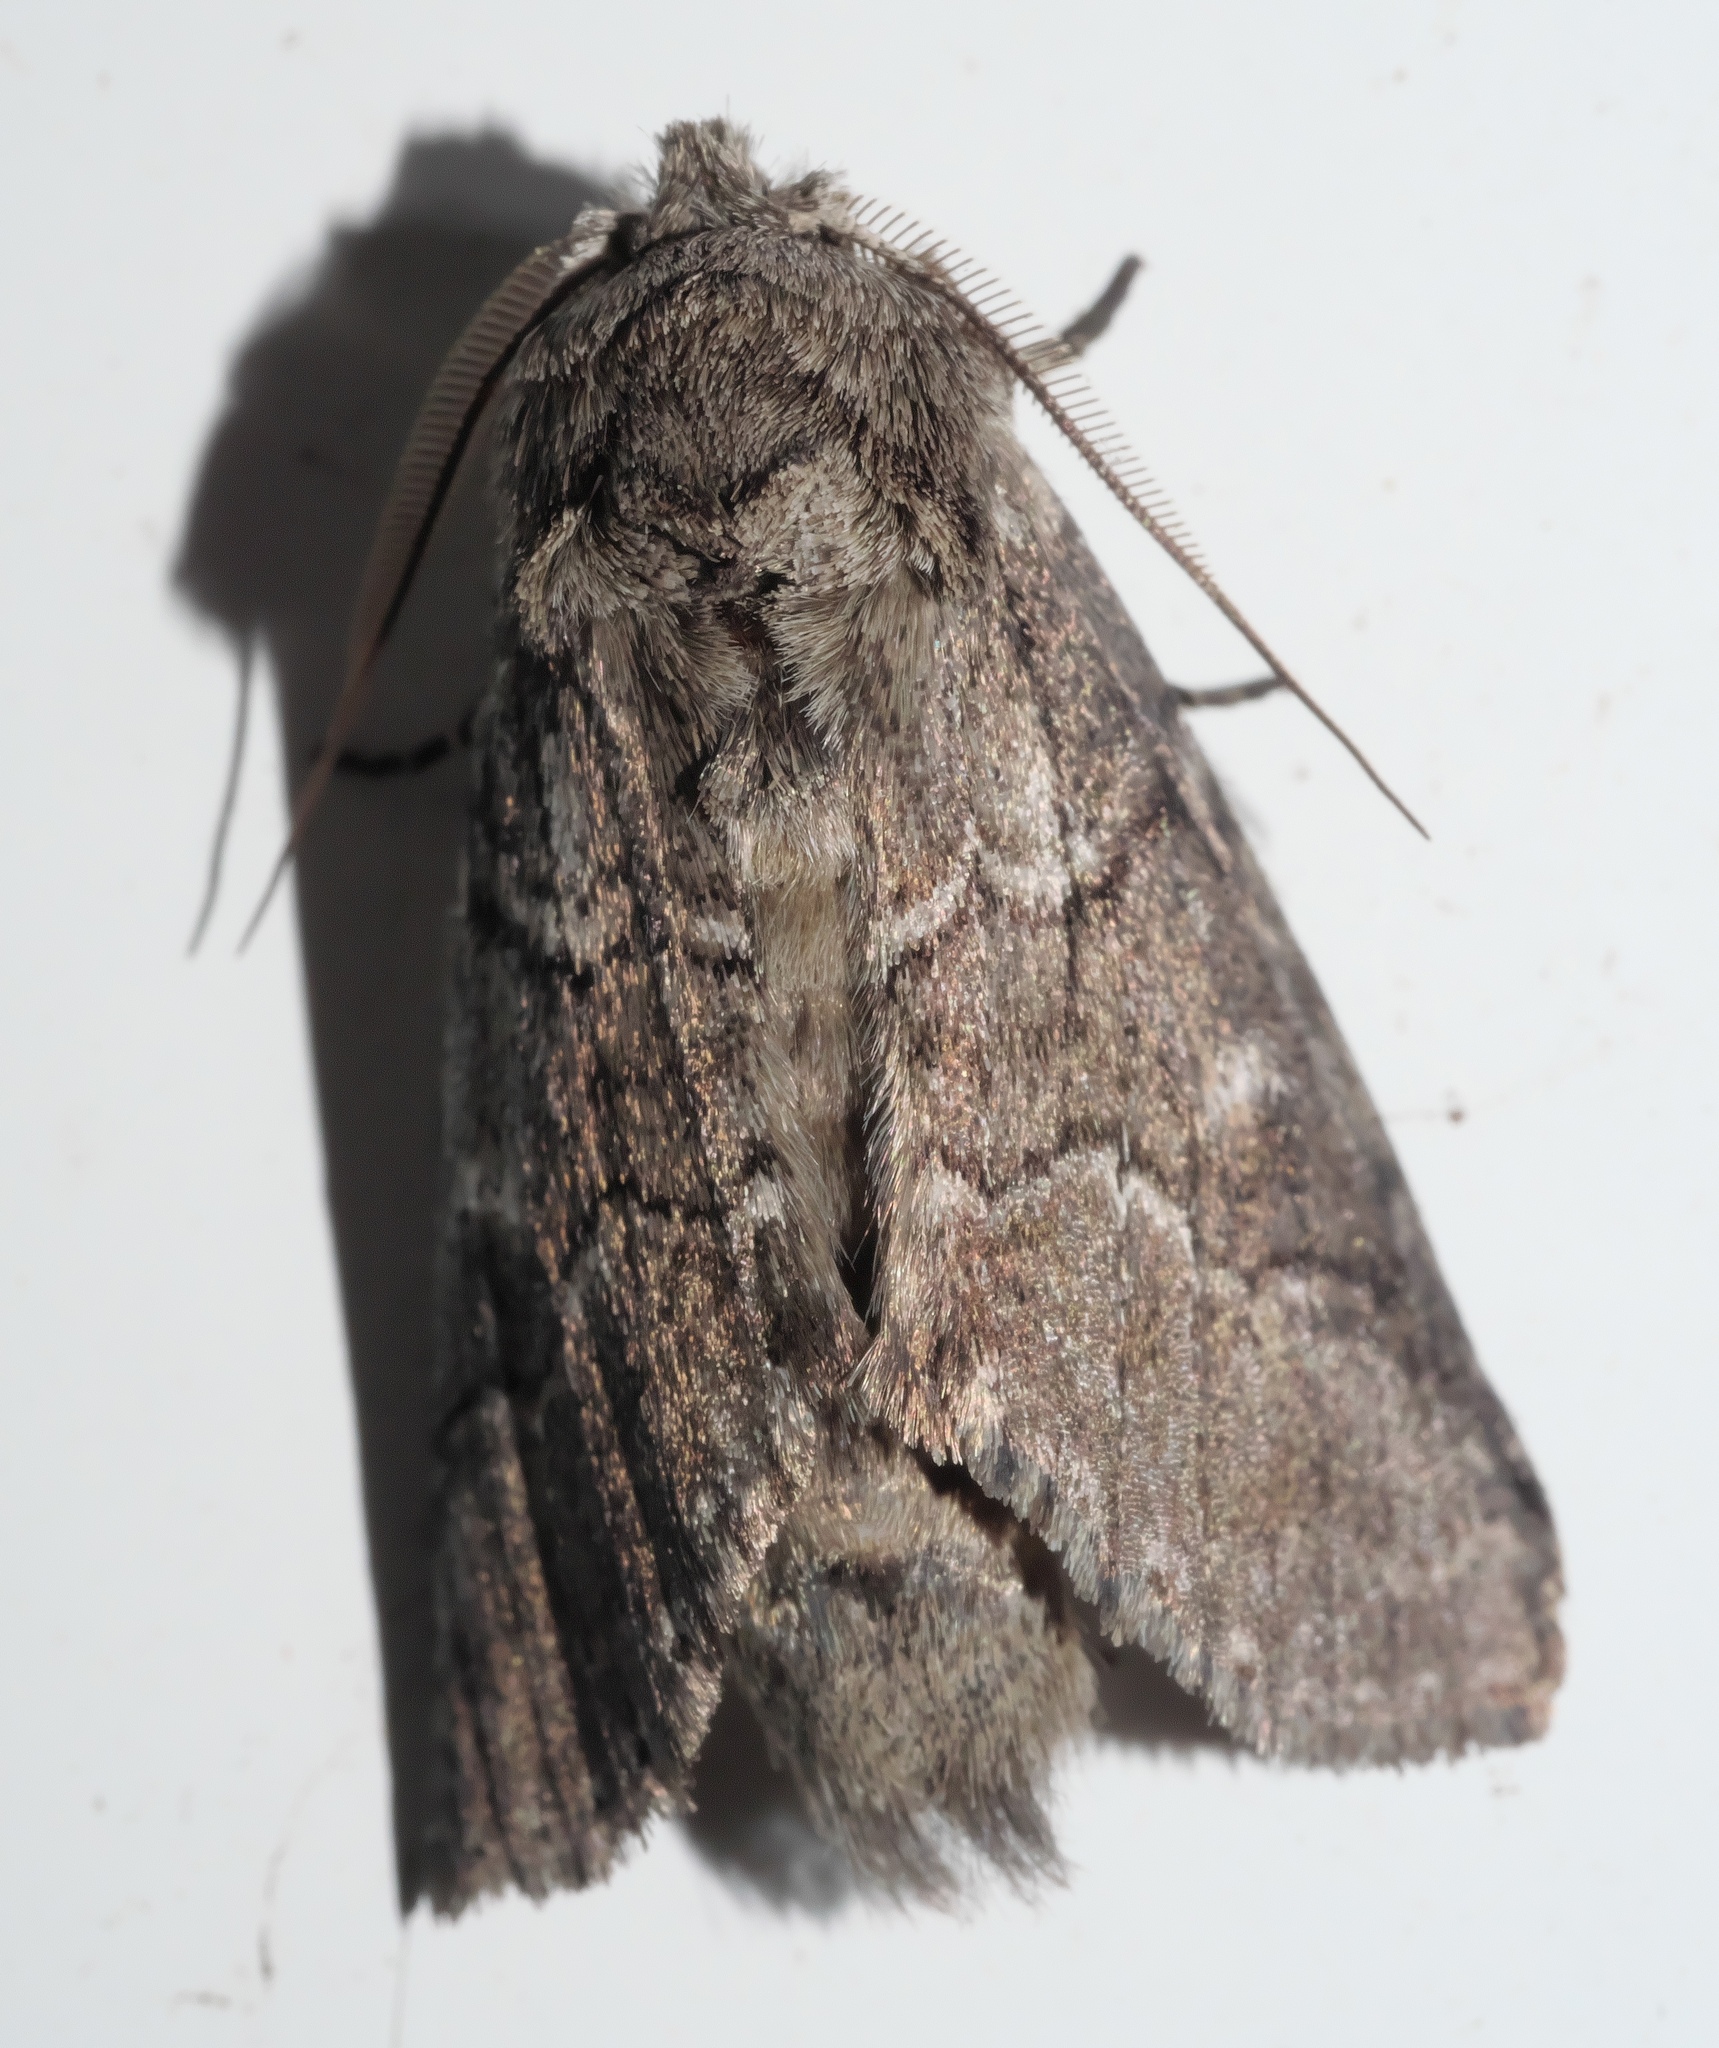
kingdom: Animalia
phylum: Arthropoda
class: Insecta
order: Lepidoptera
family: Notodontidae
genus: Lochmaeus
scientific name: Lochmaeus bilineata
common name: Double-lined prominent
